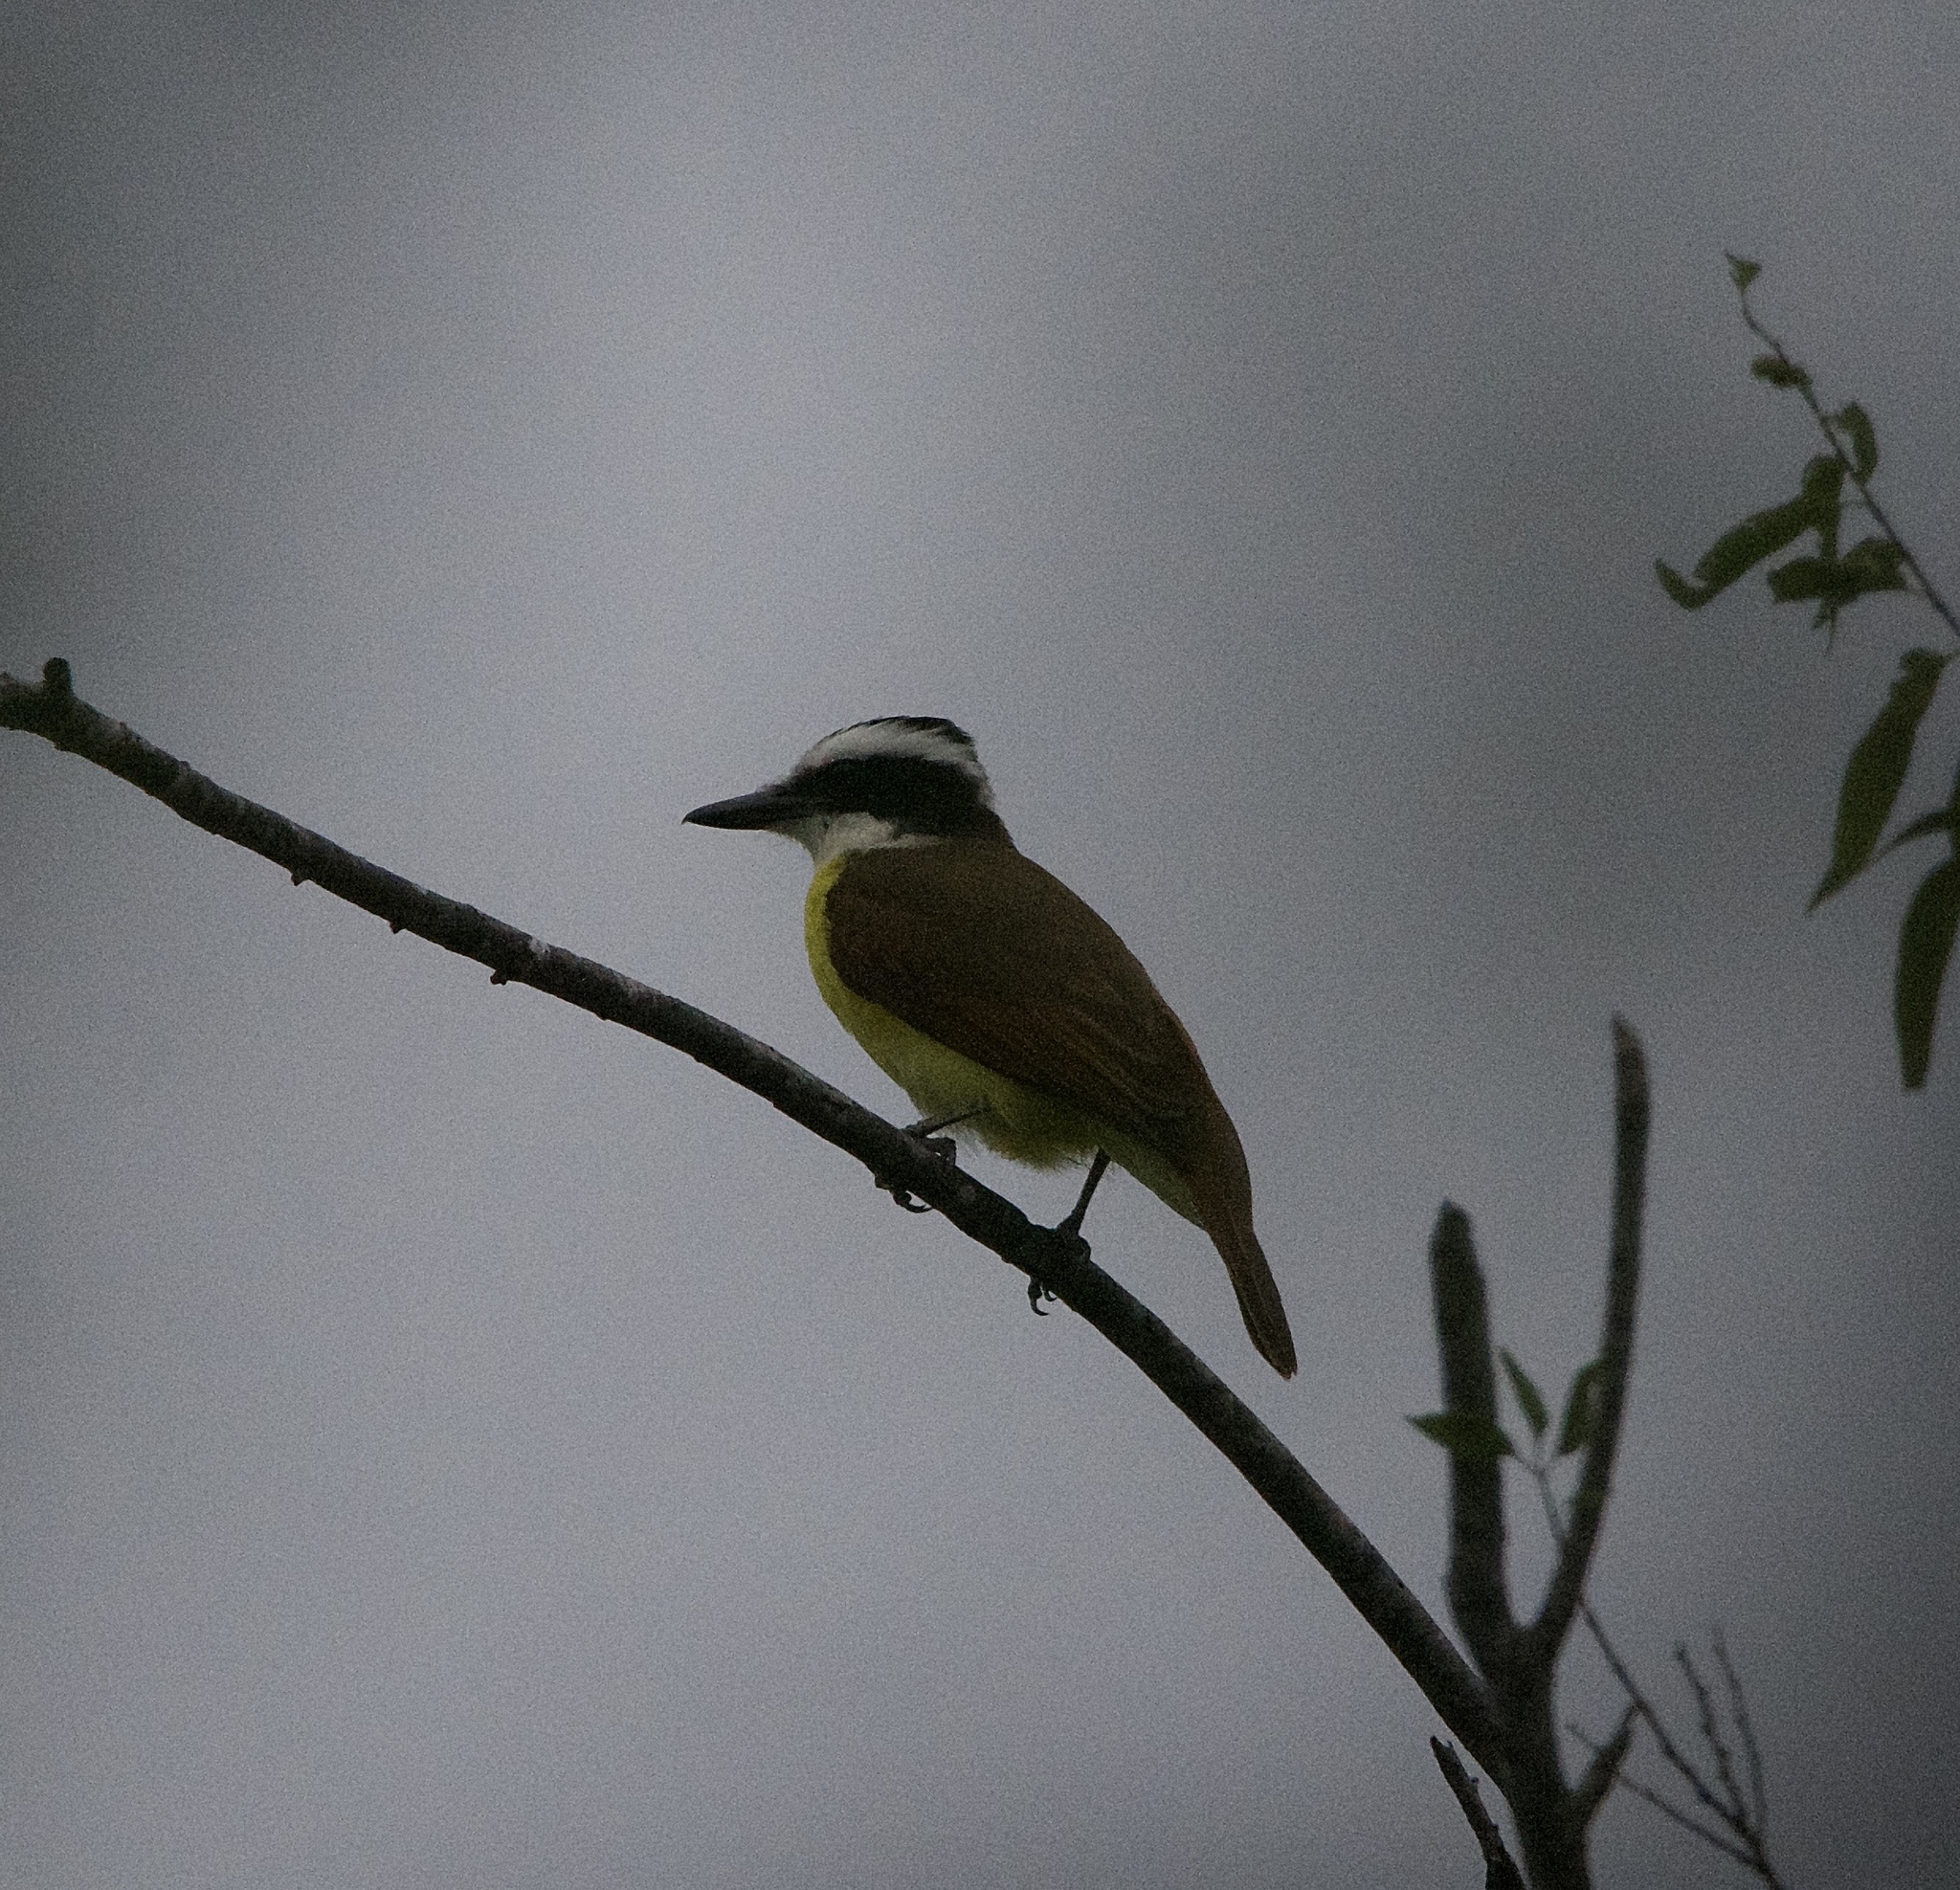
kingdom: Animalia
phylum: Chordata
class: Aves
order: Passeriformes
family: Tyrannidae
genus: Pitangus
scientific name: Pitangus sulphuratus
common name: Great kiskadee
